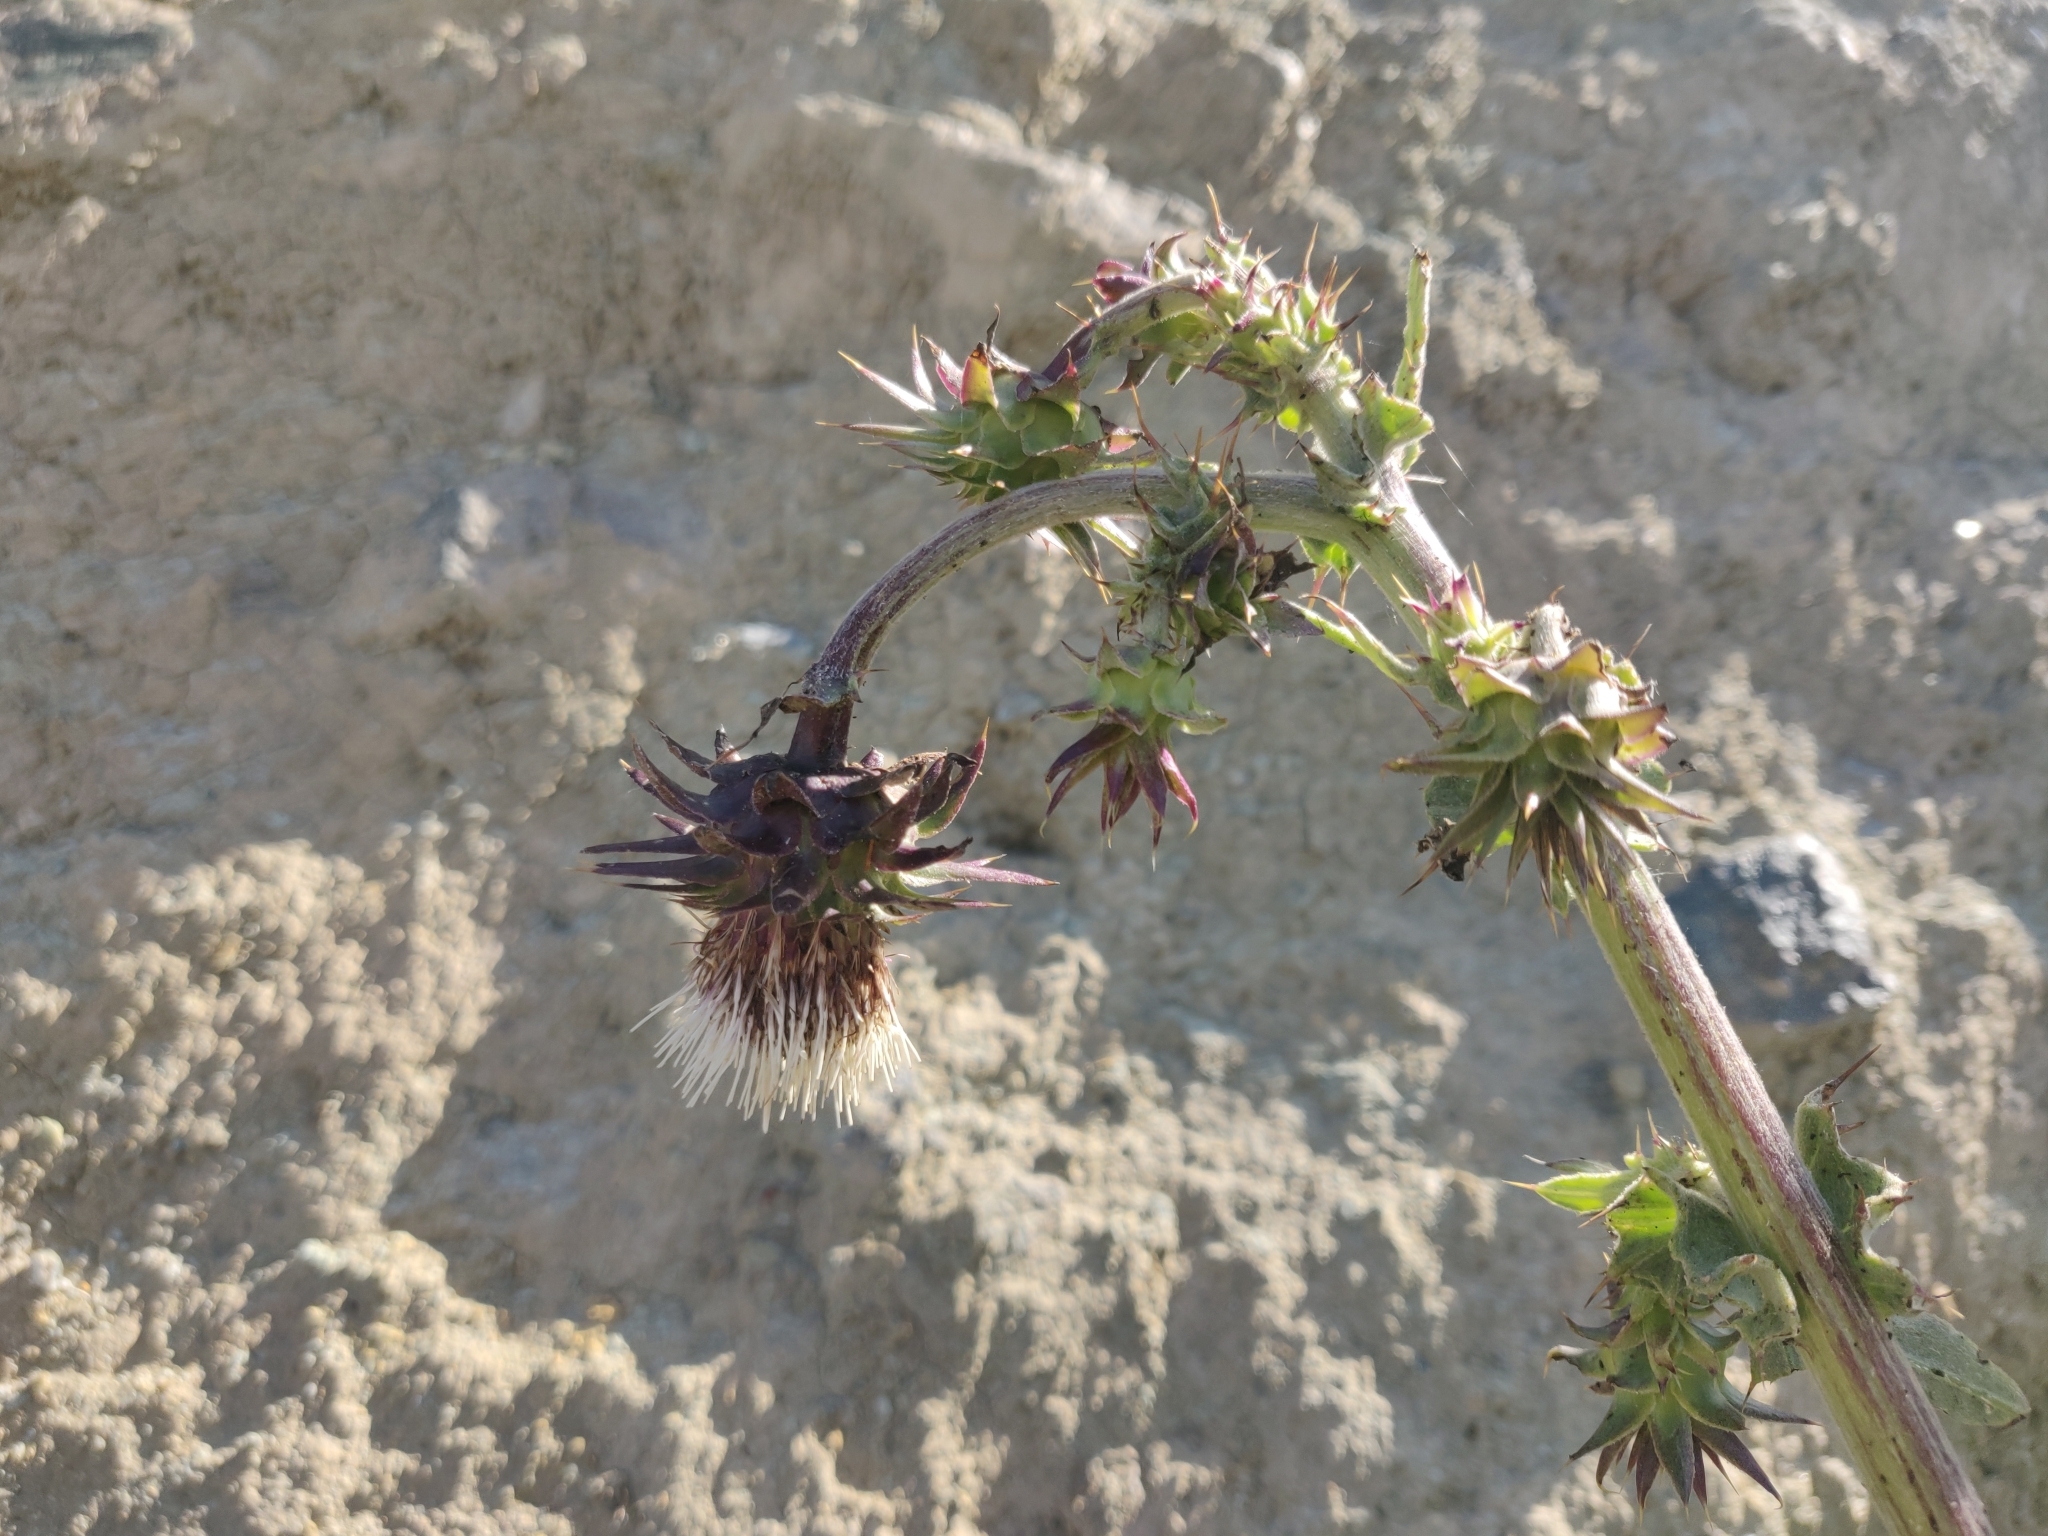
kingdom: Plantae
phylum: Tracheophyta
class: Magnoliopsida
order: Asterales
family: Asteraceae
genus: Cirsium
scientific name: Cirsium fontinale
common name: Fountain thistle
